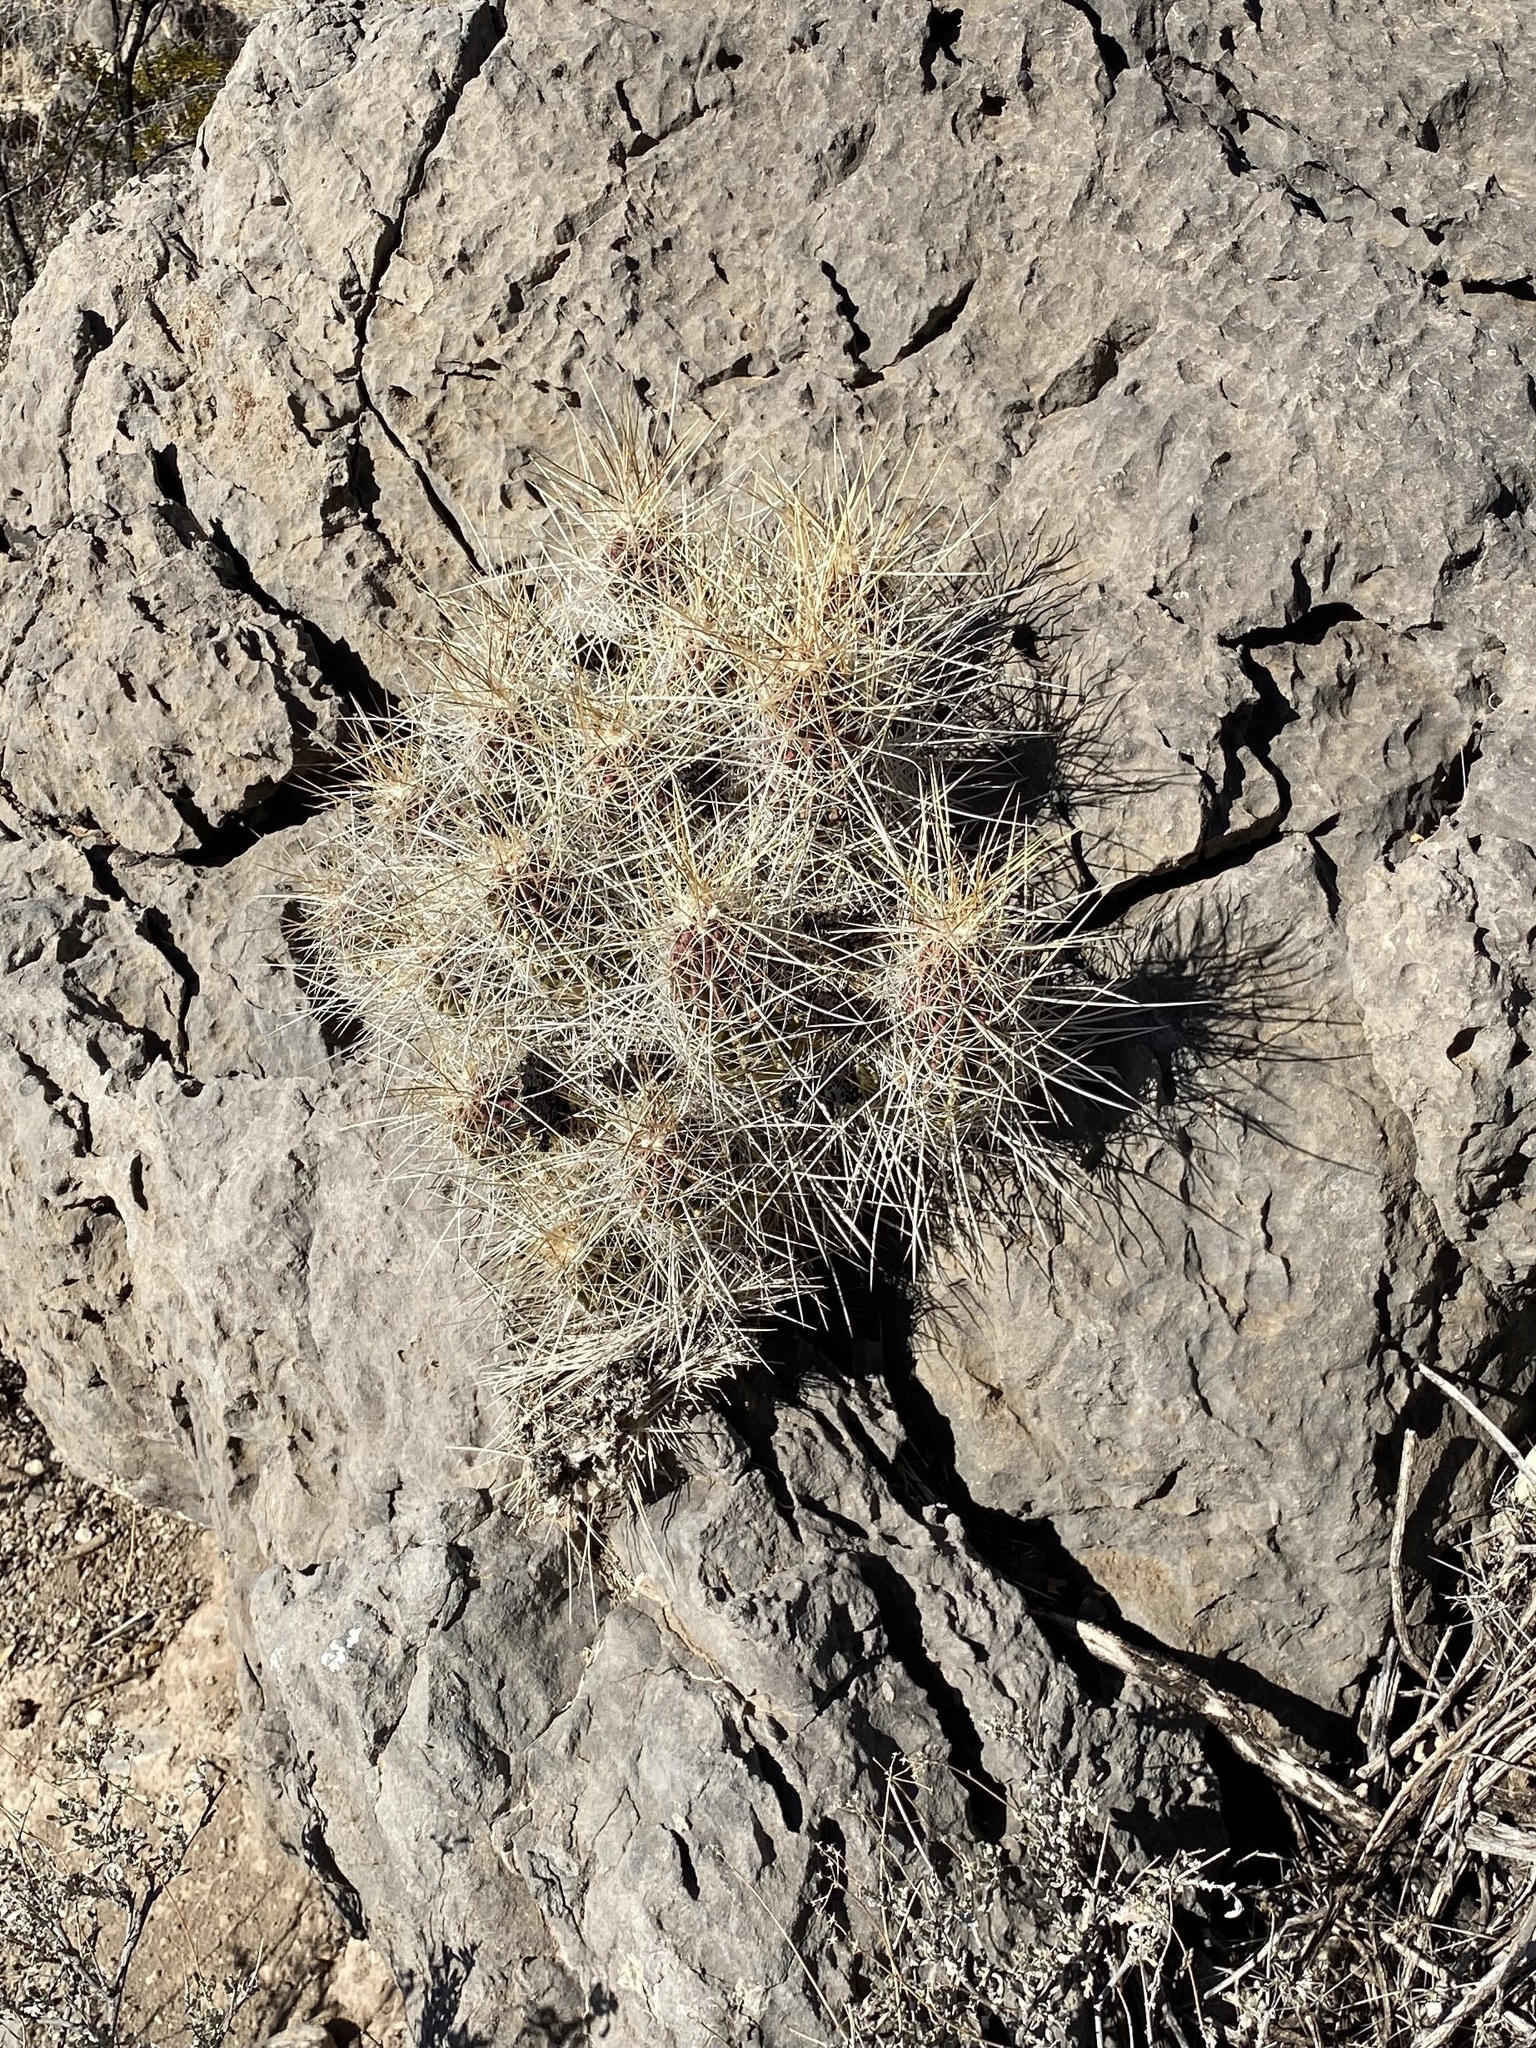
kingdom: Plantae
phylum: Tracheophyta
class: Magnoliopsida
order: Caryophyllales
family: Cactaceae
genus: Echinocereus
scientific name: Echinocereus stramineus
